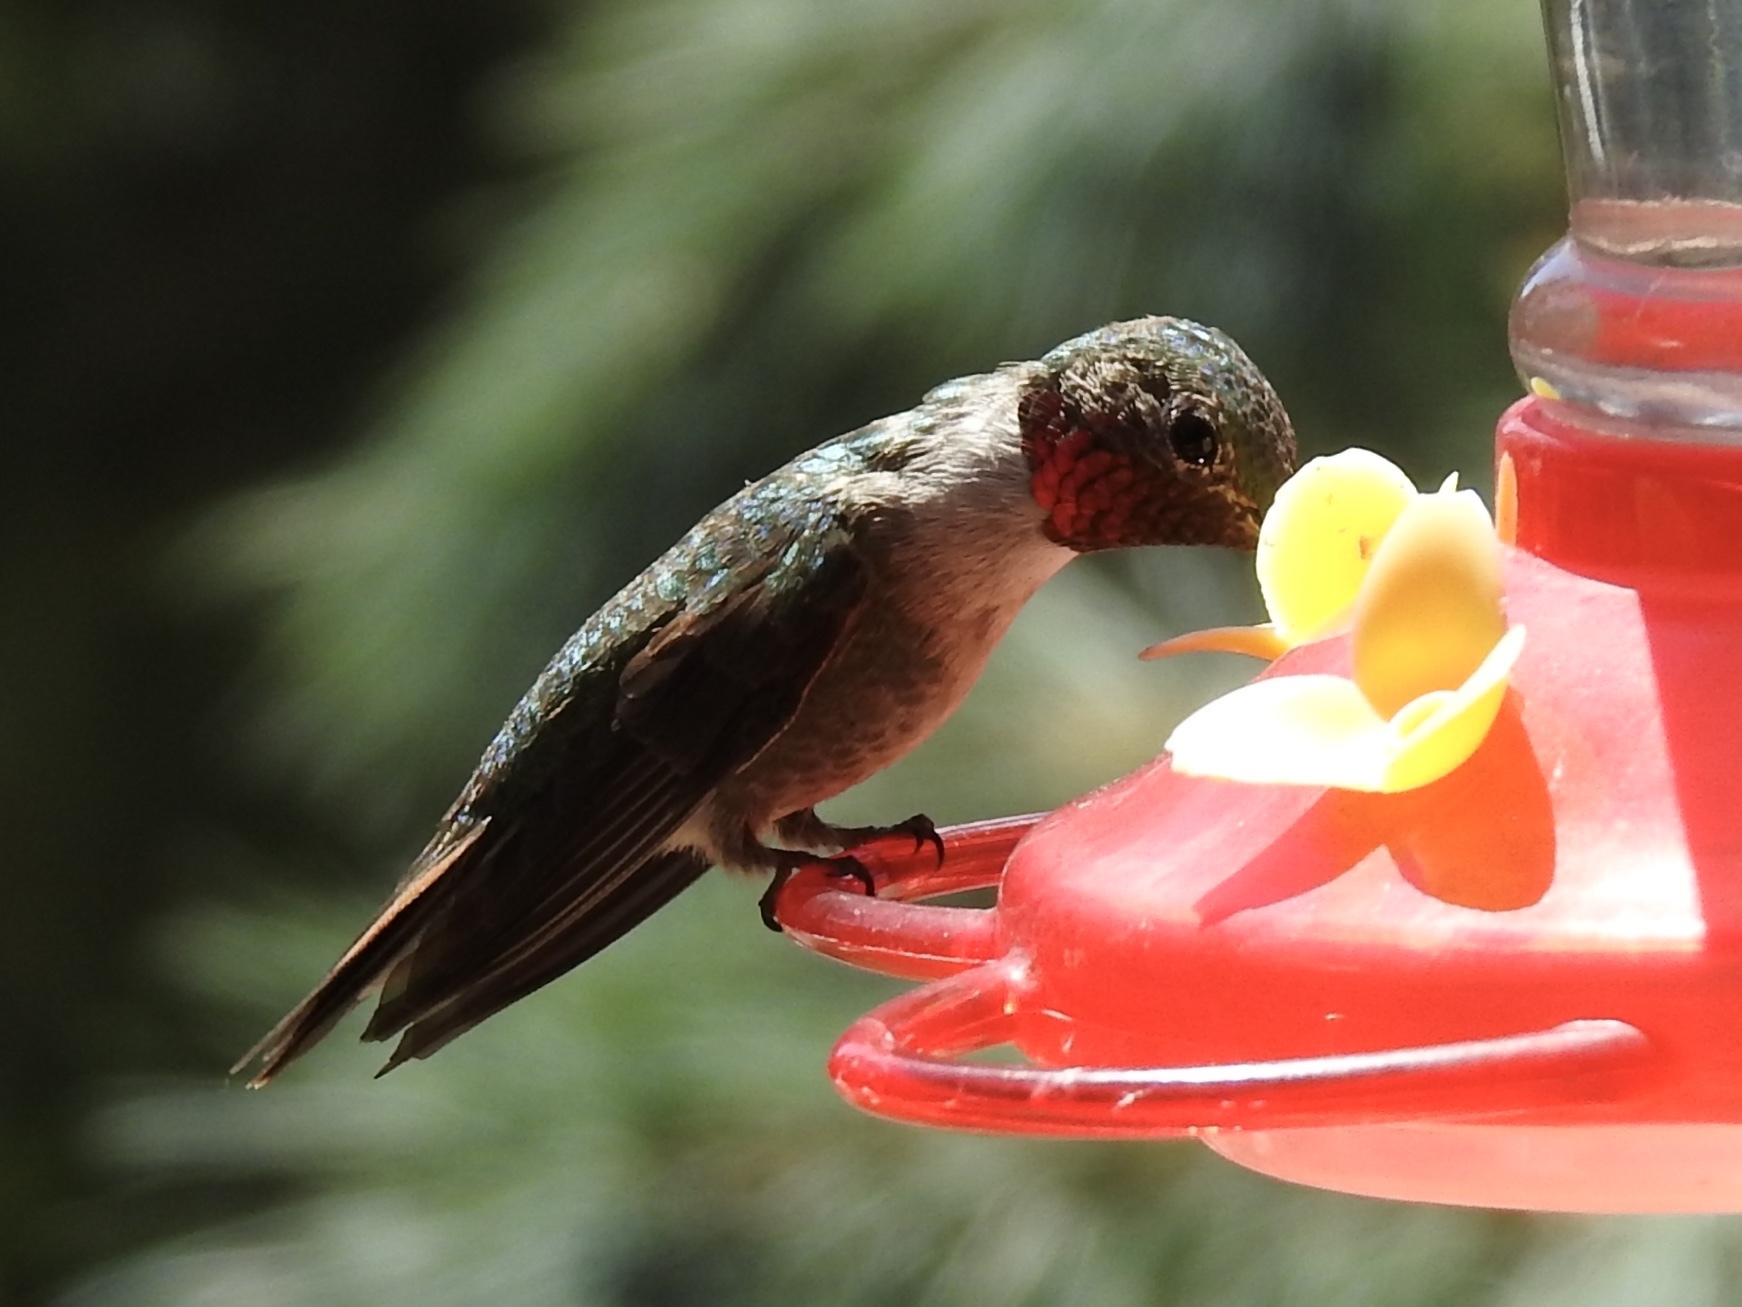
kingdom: Animalia
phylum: Chordata
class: Aves
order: Apodiformes
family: Trochilidae
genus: Selasphorus
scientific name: Selasphorus platycercus
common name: Broad-tailed hummingbird
